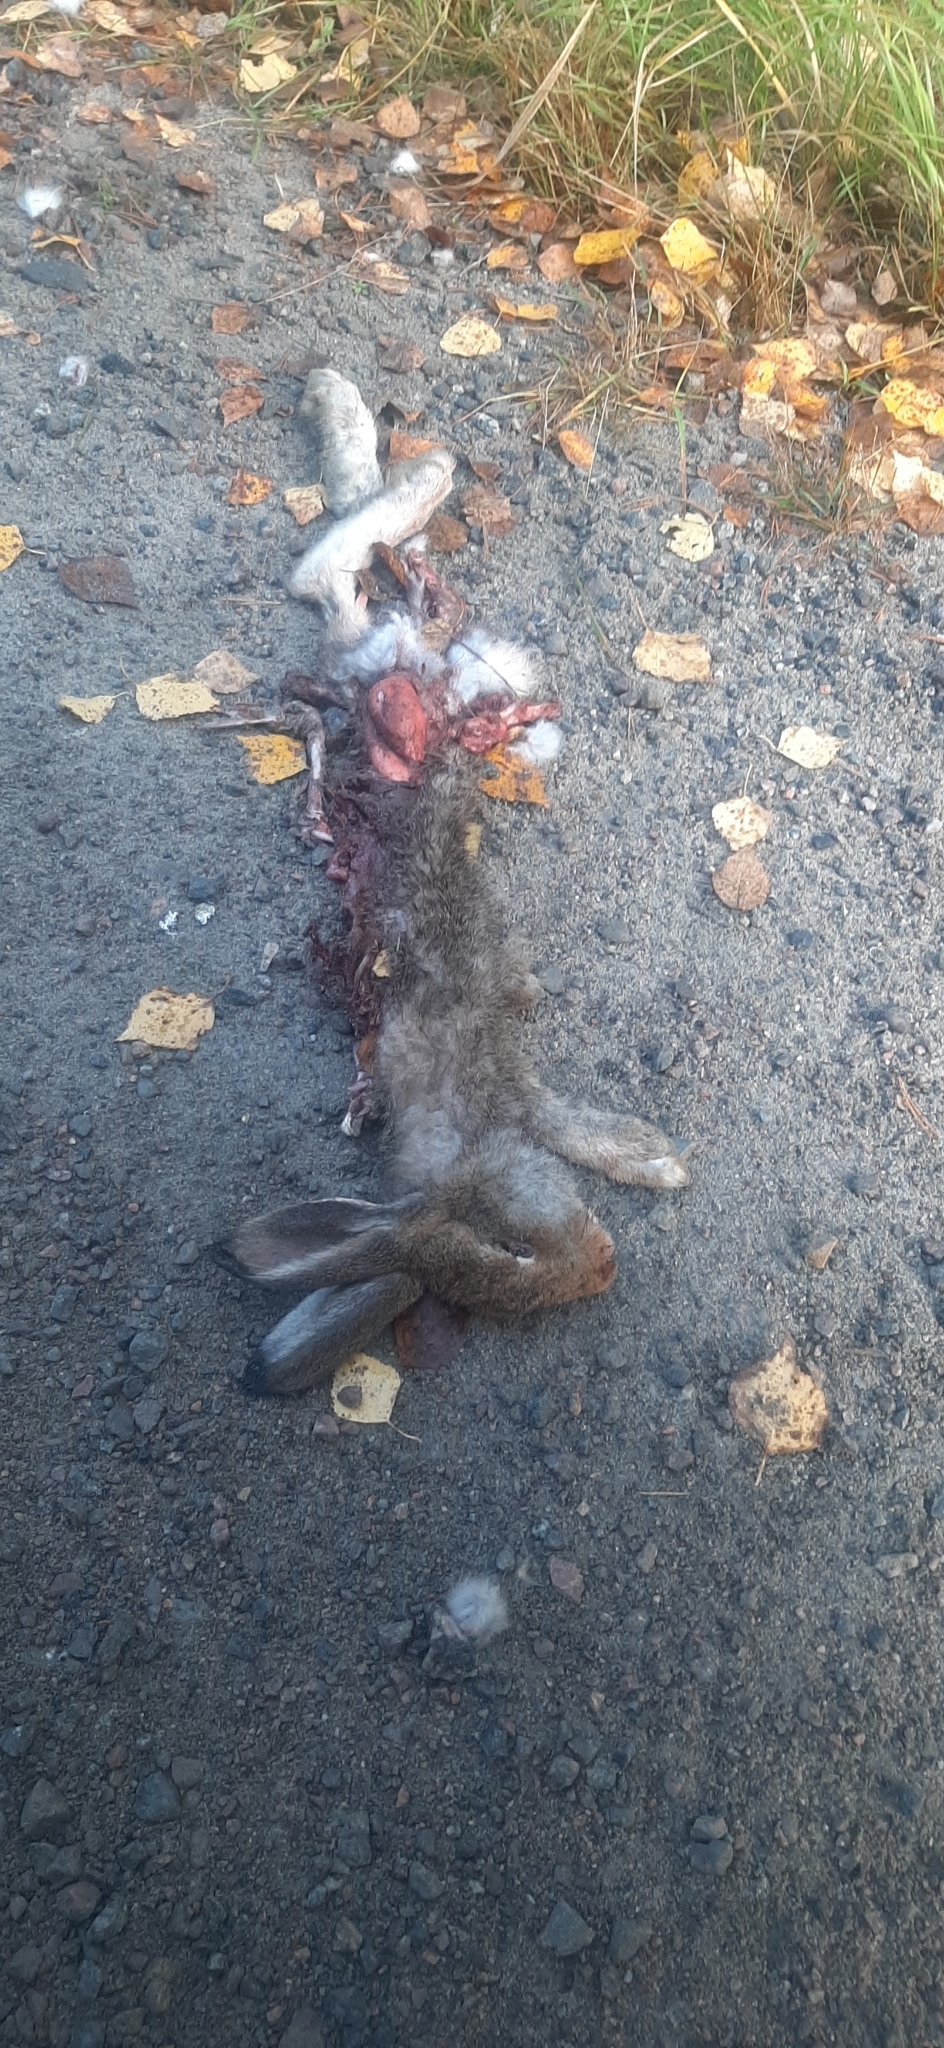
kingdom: Animalia
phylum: Chordata
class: Mammalia
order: Lagomorpha
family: Leporidae
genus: Lepus
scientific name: Lepus timidus
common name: Mountain hare
